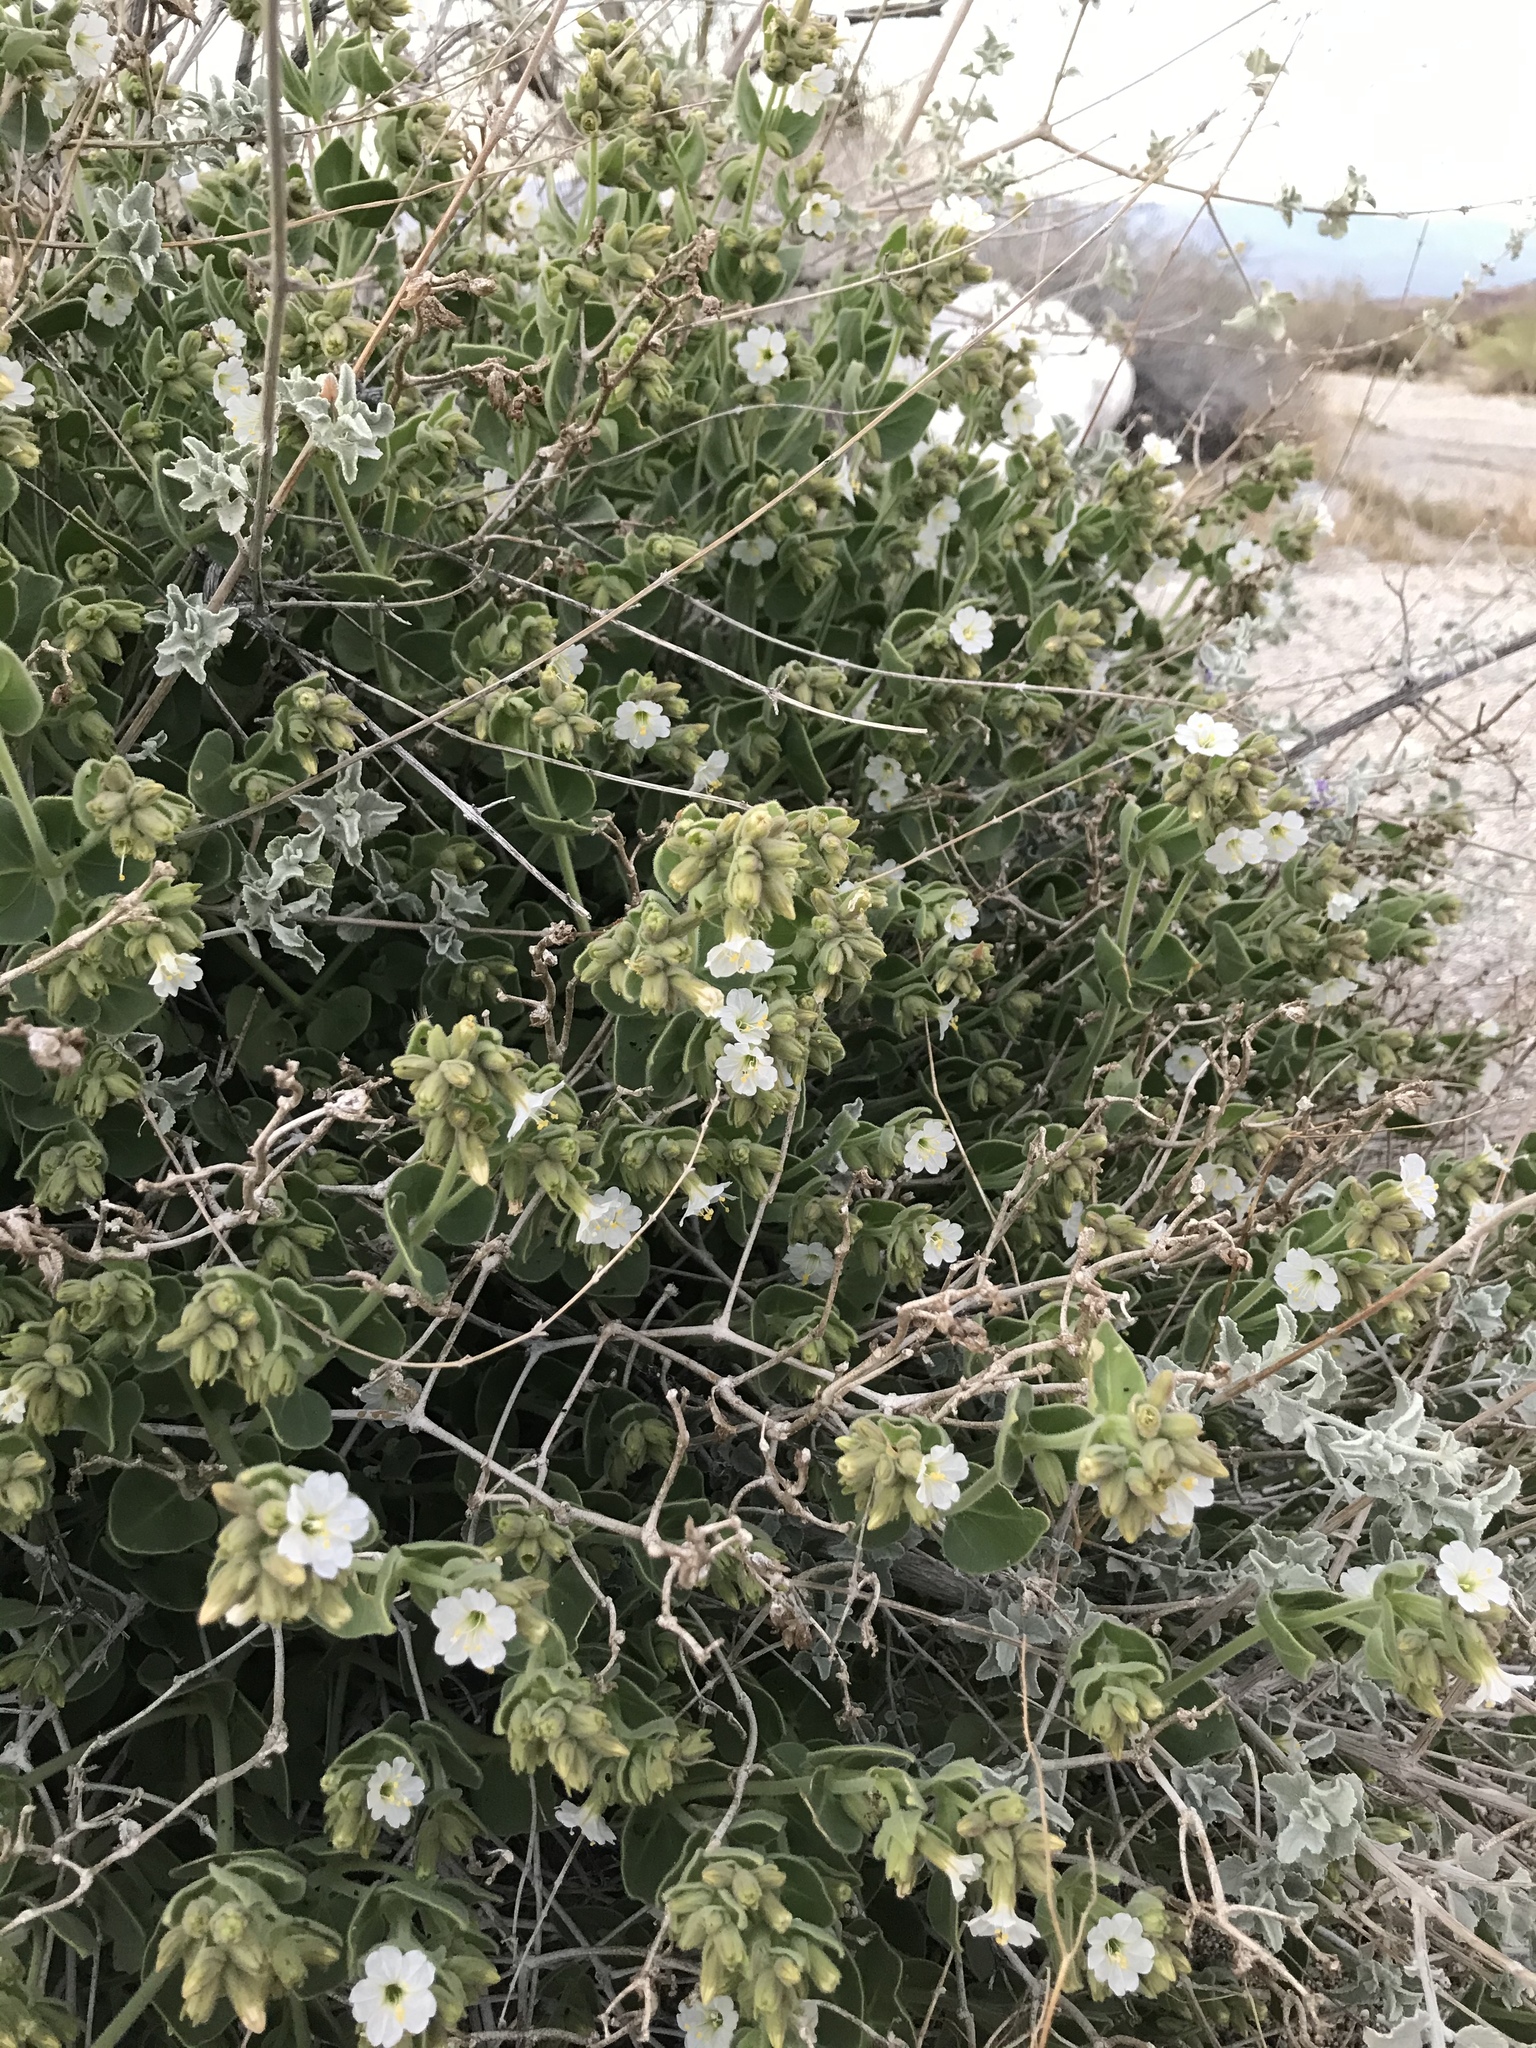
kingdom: Plantae
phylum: Tracheophyta
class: Magnoliopsida
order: Caryophyllales
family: Nyctaginaceae
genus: Mirabilis
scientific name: Mirabilis laevis
